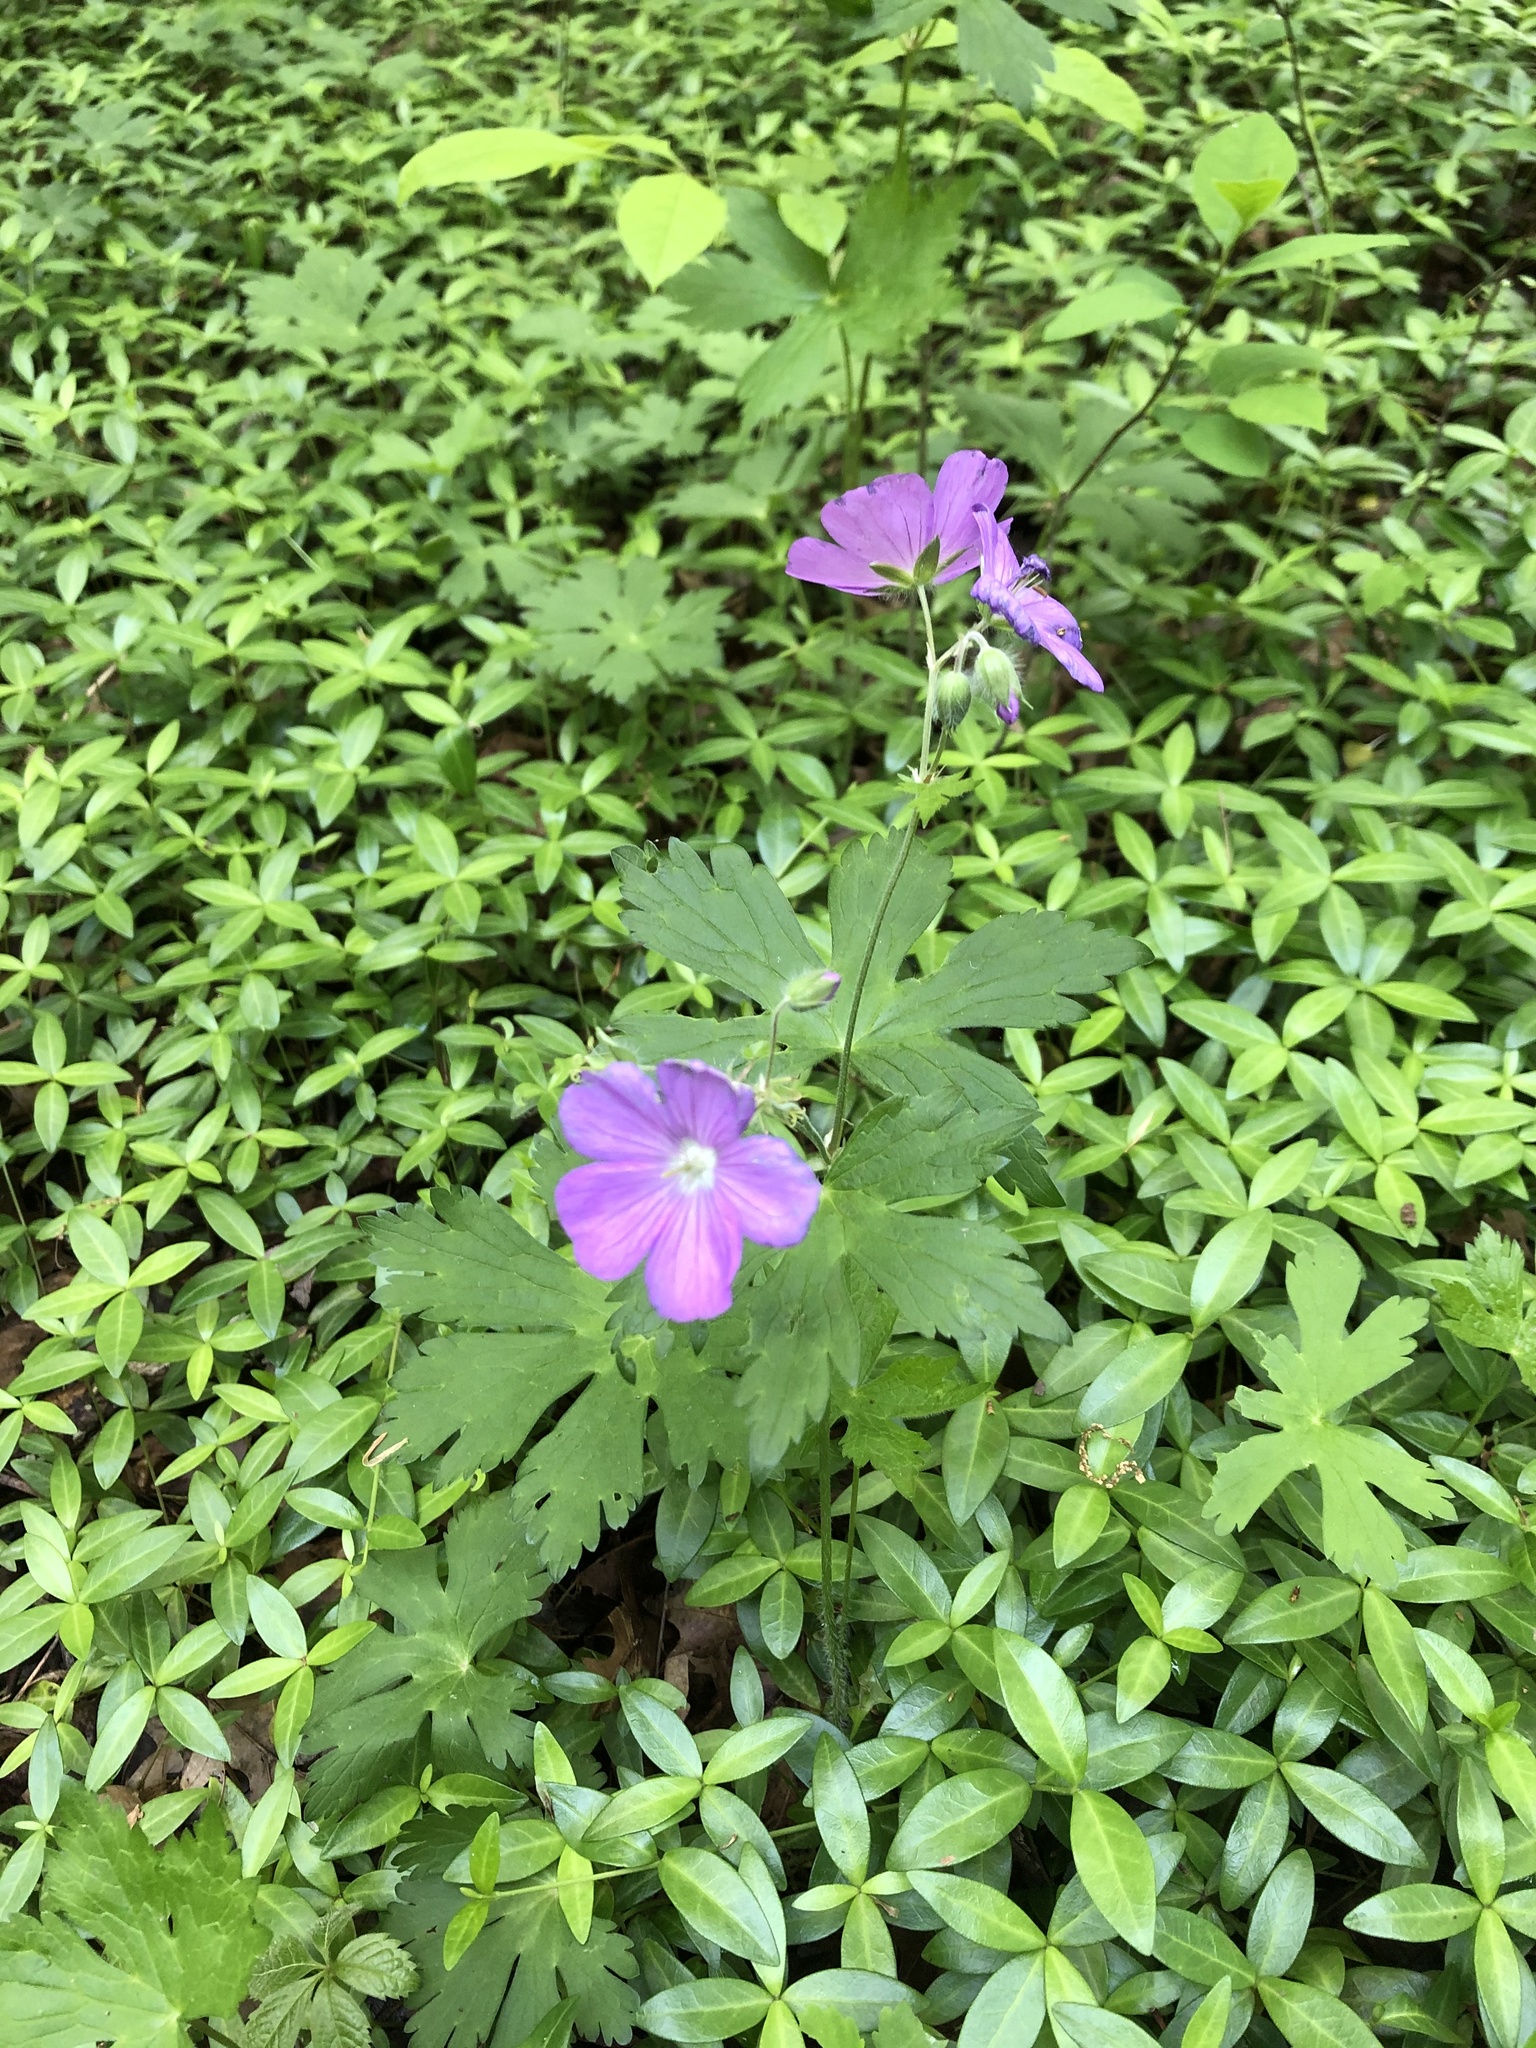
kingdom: Plantae
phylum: Tracheophyta
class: Magnoliopsida
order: Geraniales
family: Geraniaceae
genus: Geranium
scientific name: Geranium maculatum
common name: Spotted geranium
